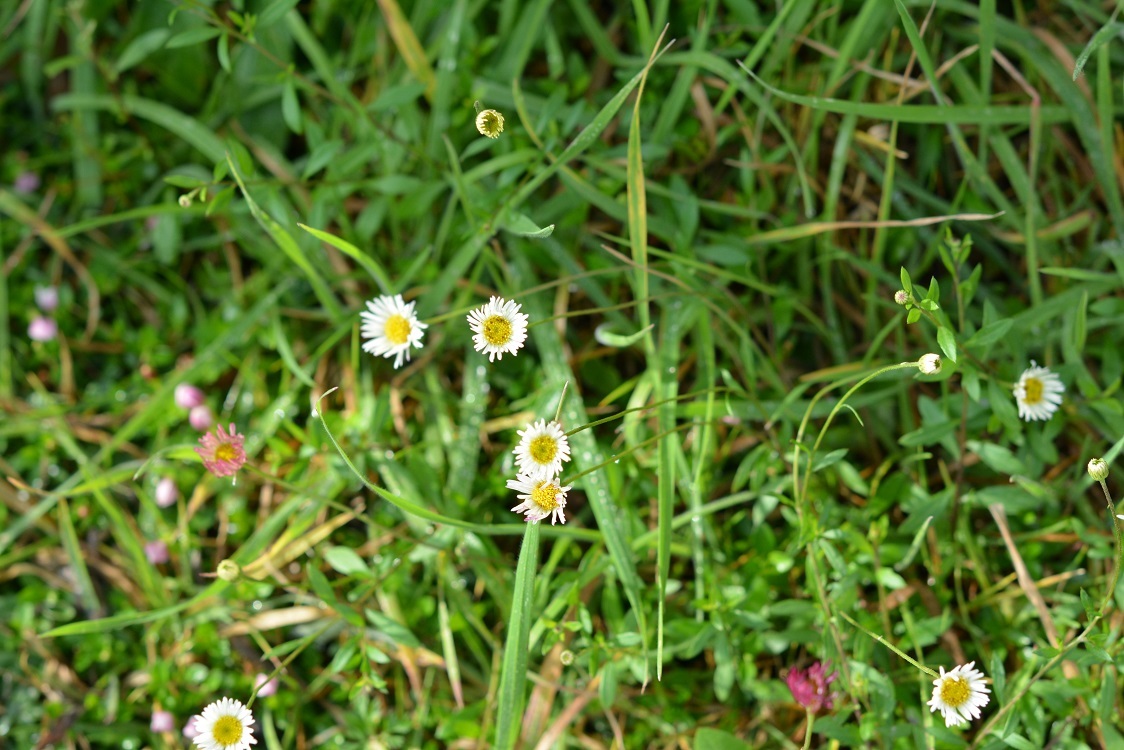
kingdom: Plantae
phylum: Tracheophyta
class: Magnoliopsida
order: Asterales
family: Asteraceae
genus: Erigeron
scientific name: Erigeron karvinskianus
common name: Mexican fleabane
